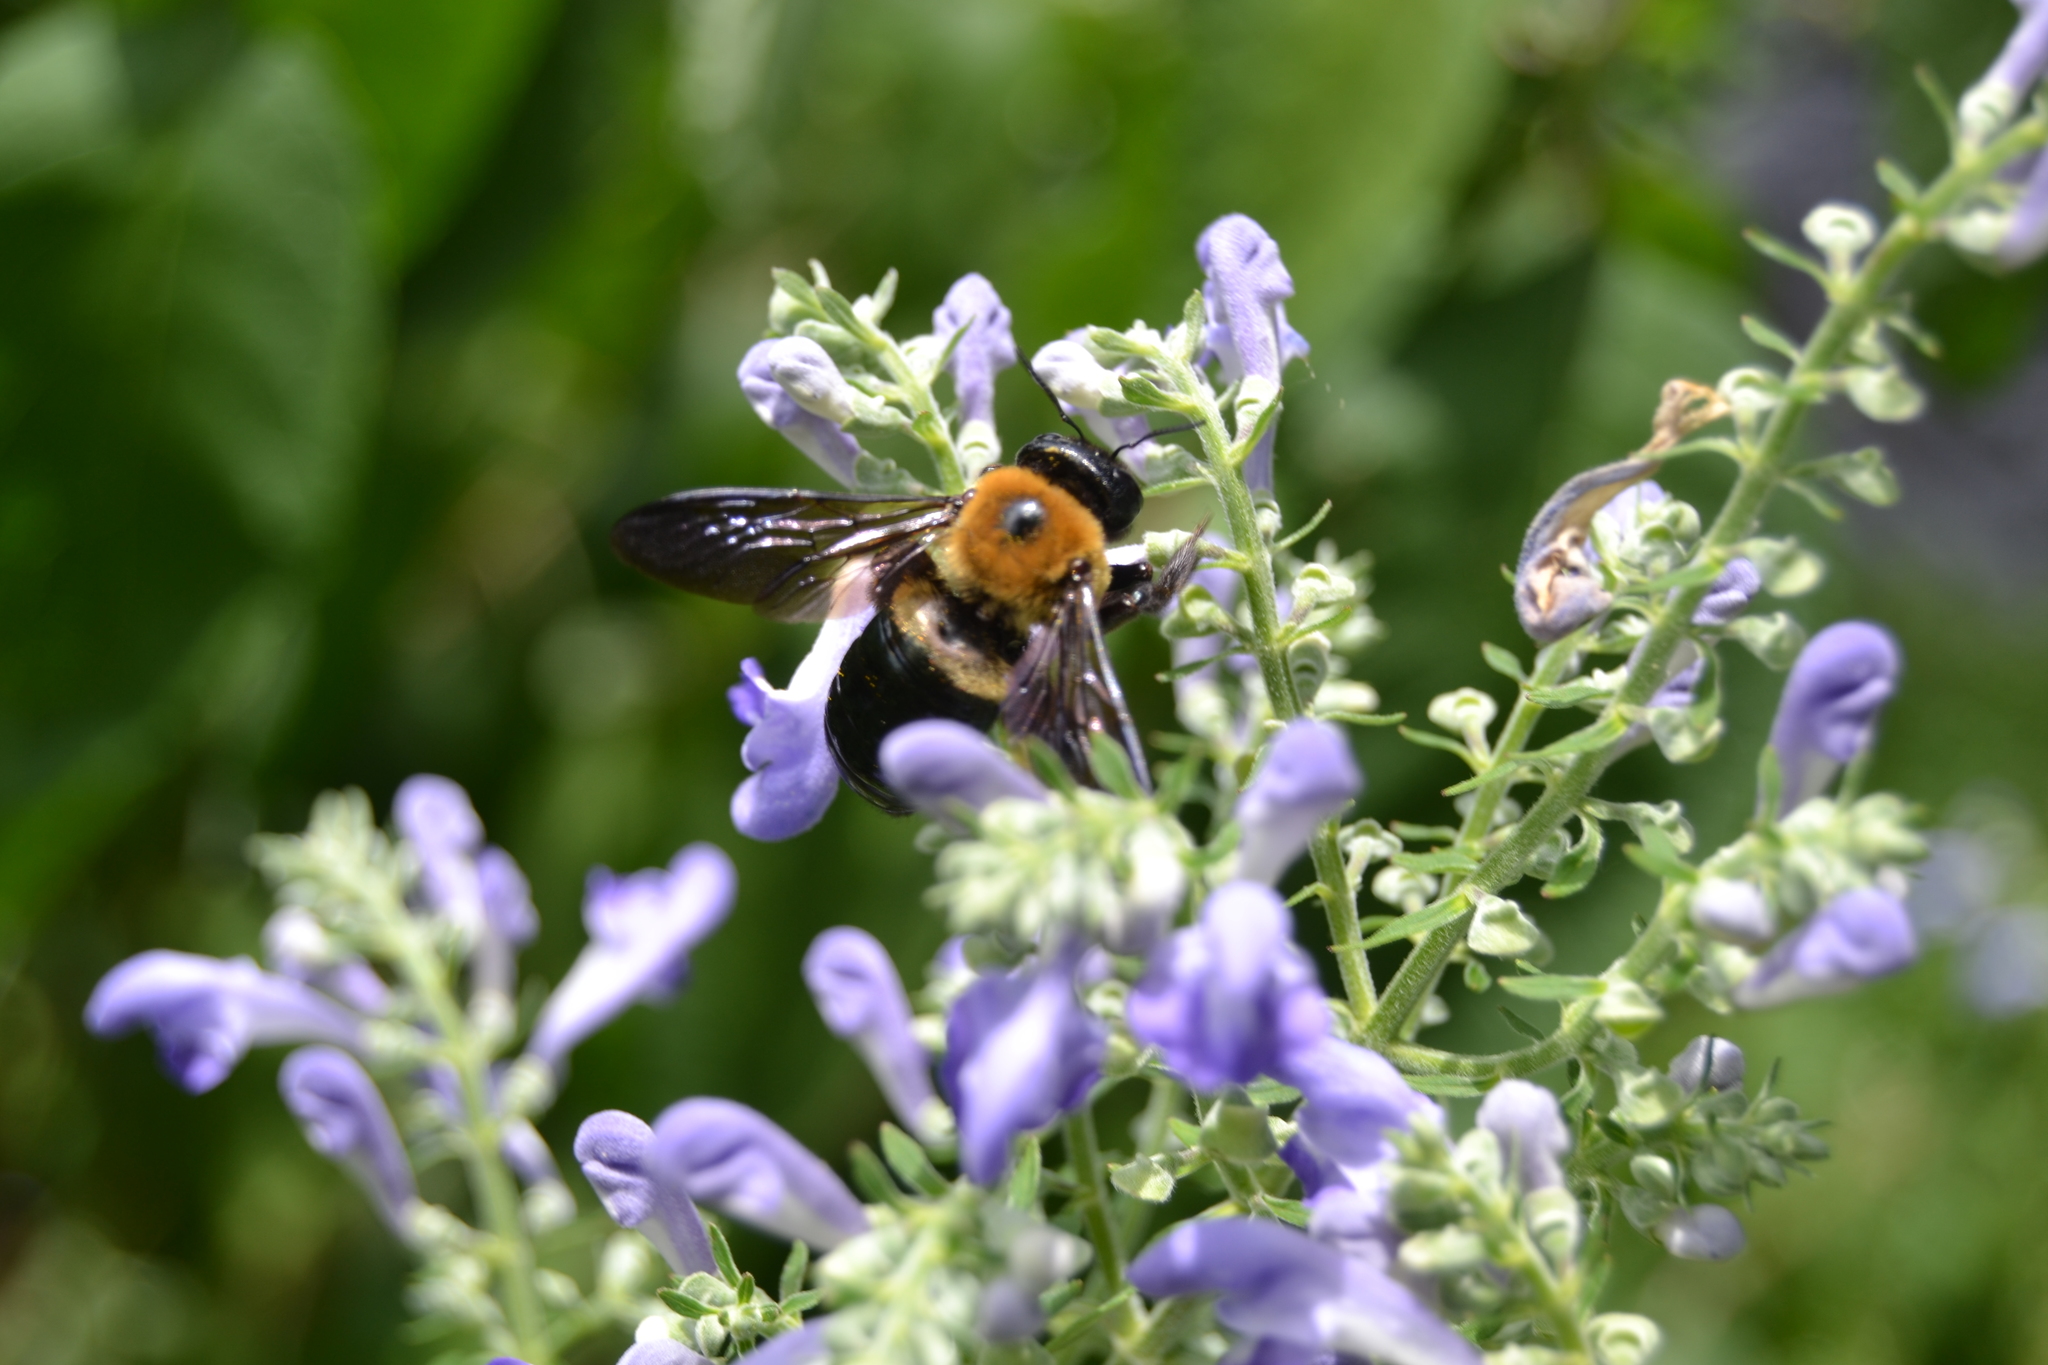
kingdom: Animalia
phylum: Arthropoda
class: Insecta
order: Hymenoptera
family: Apidae
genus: Xylocopa
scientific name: Xylocopa virginica
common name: Carpenter bee
